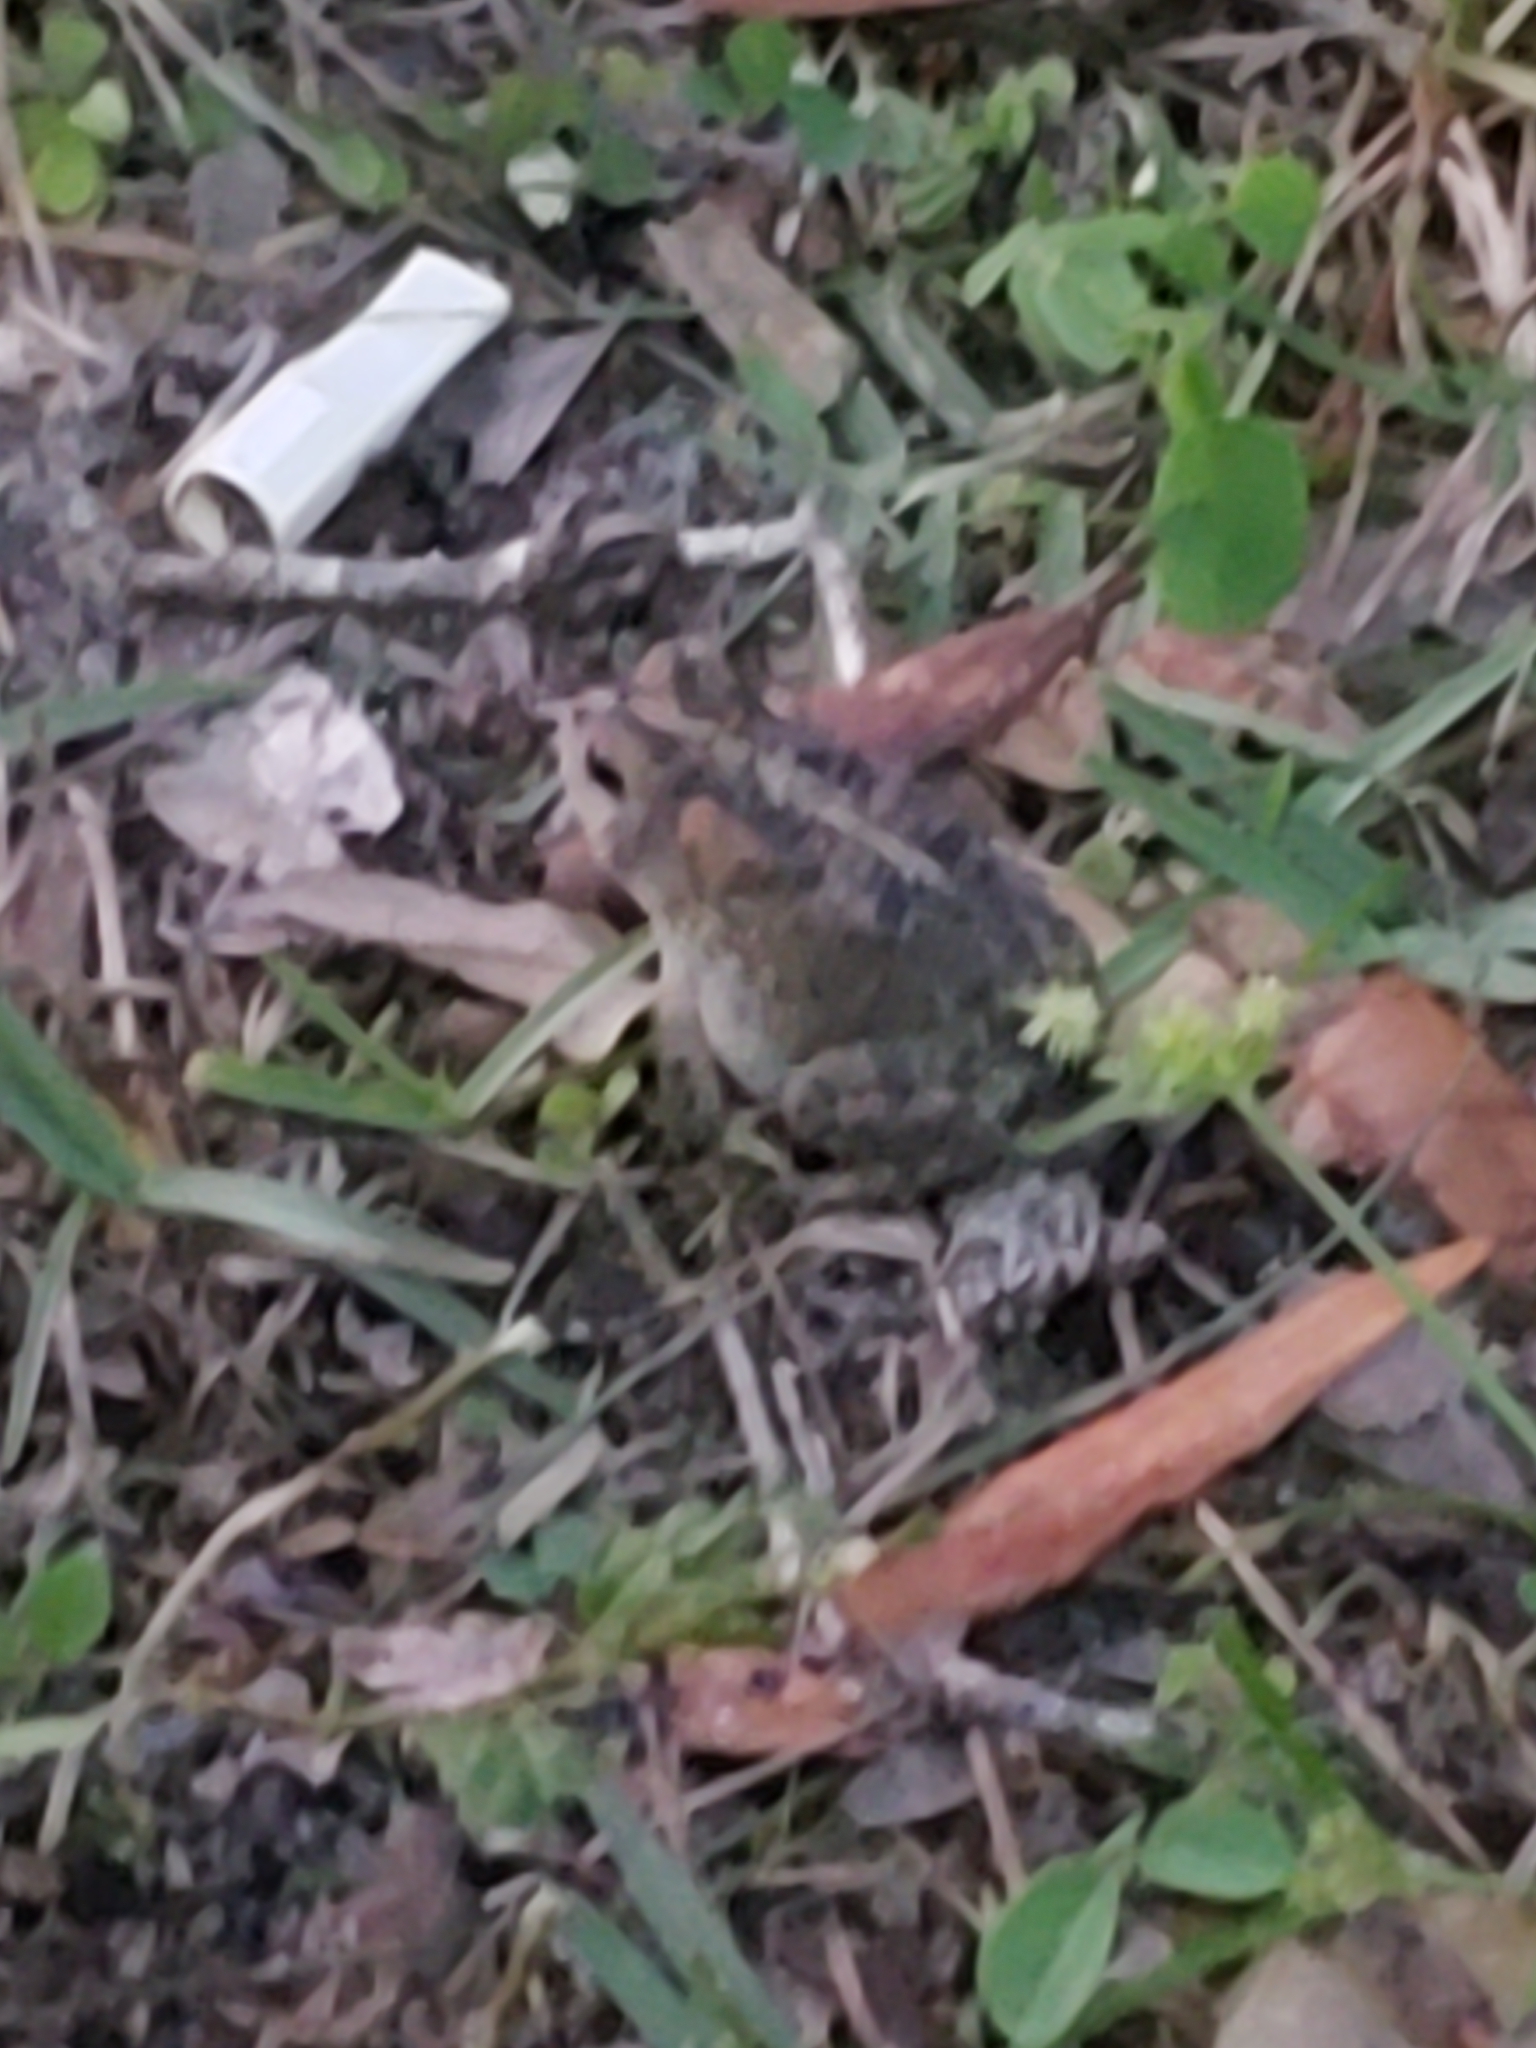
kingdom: Animalia
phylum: Chordata
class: Amphibia
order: Anura
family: Bufonidae
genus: Anaxyrus
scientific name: Anaxyrus terrestris
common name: Southern toad
